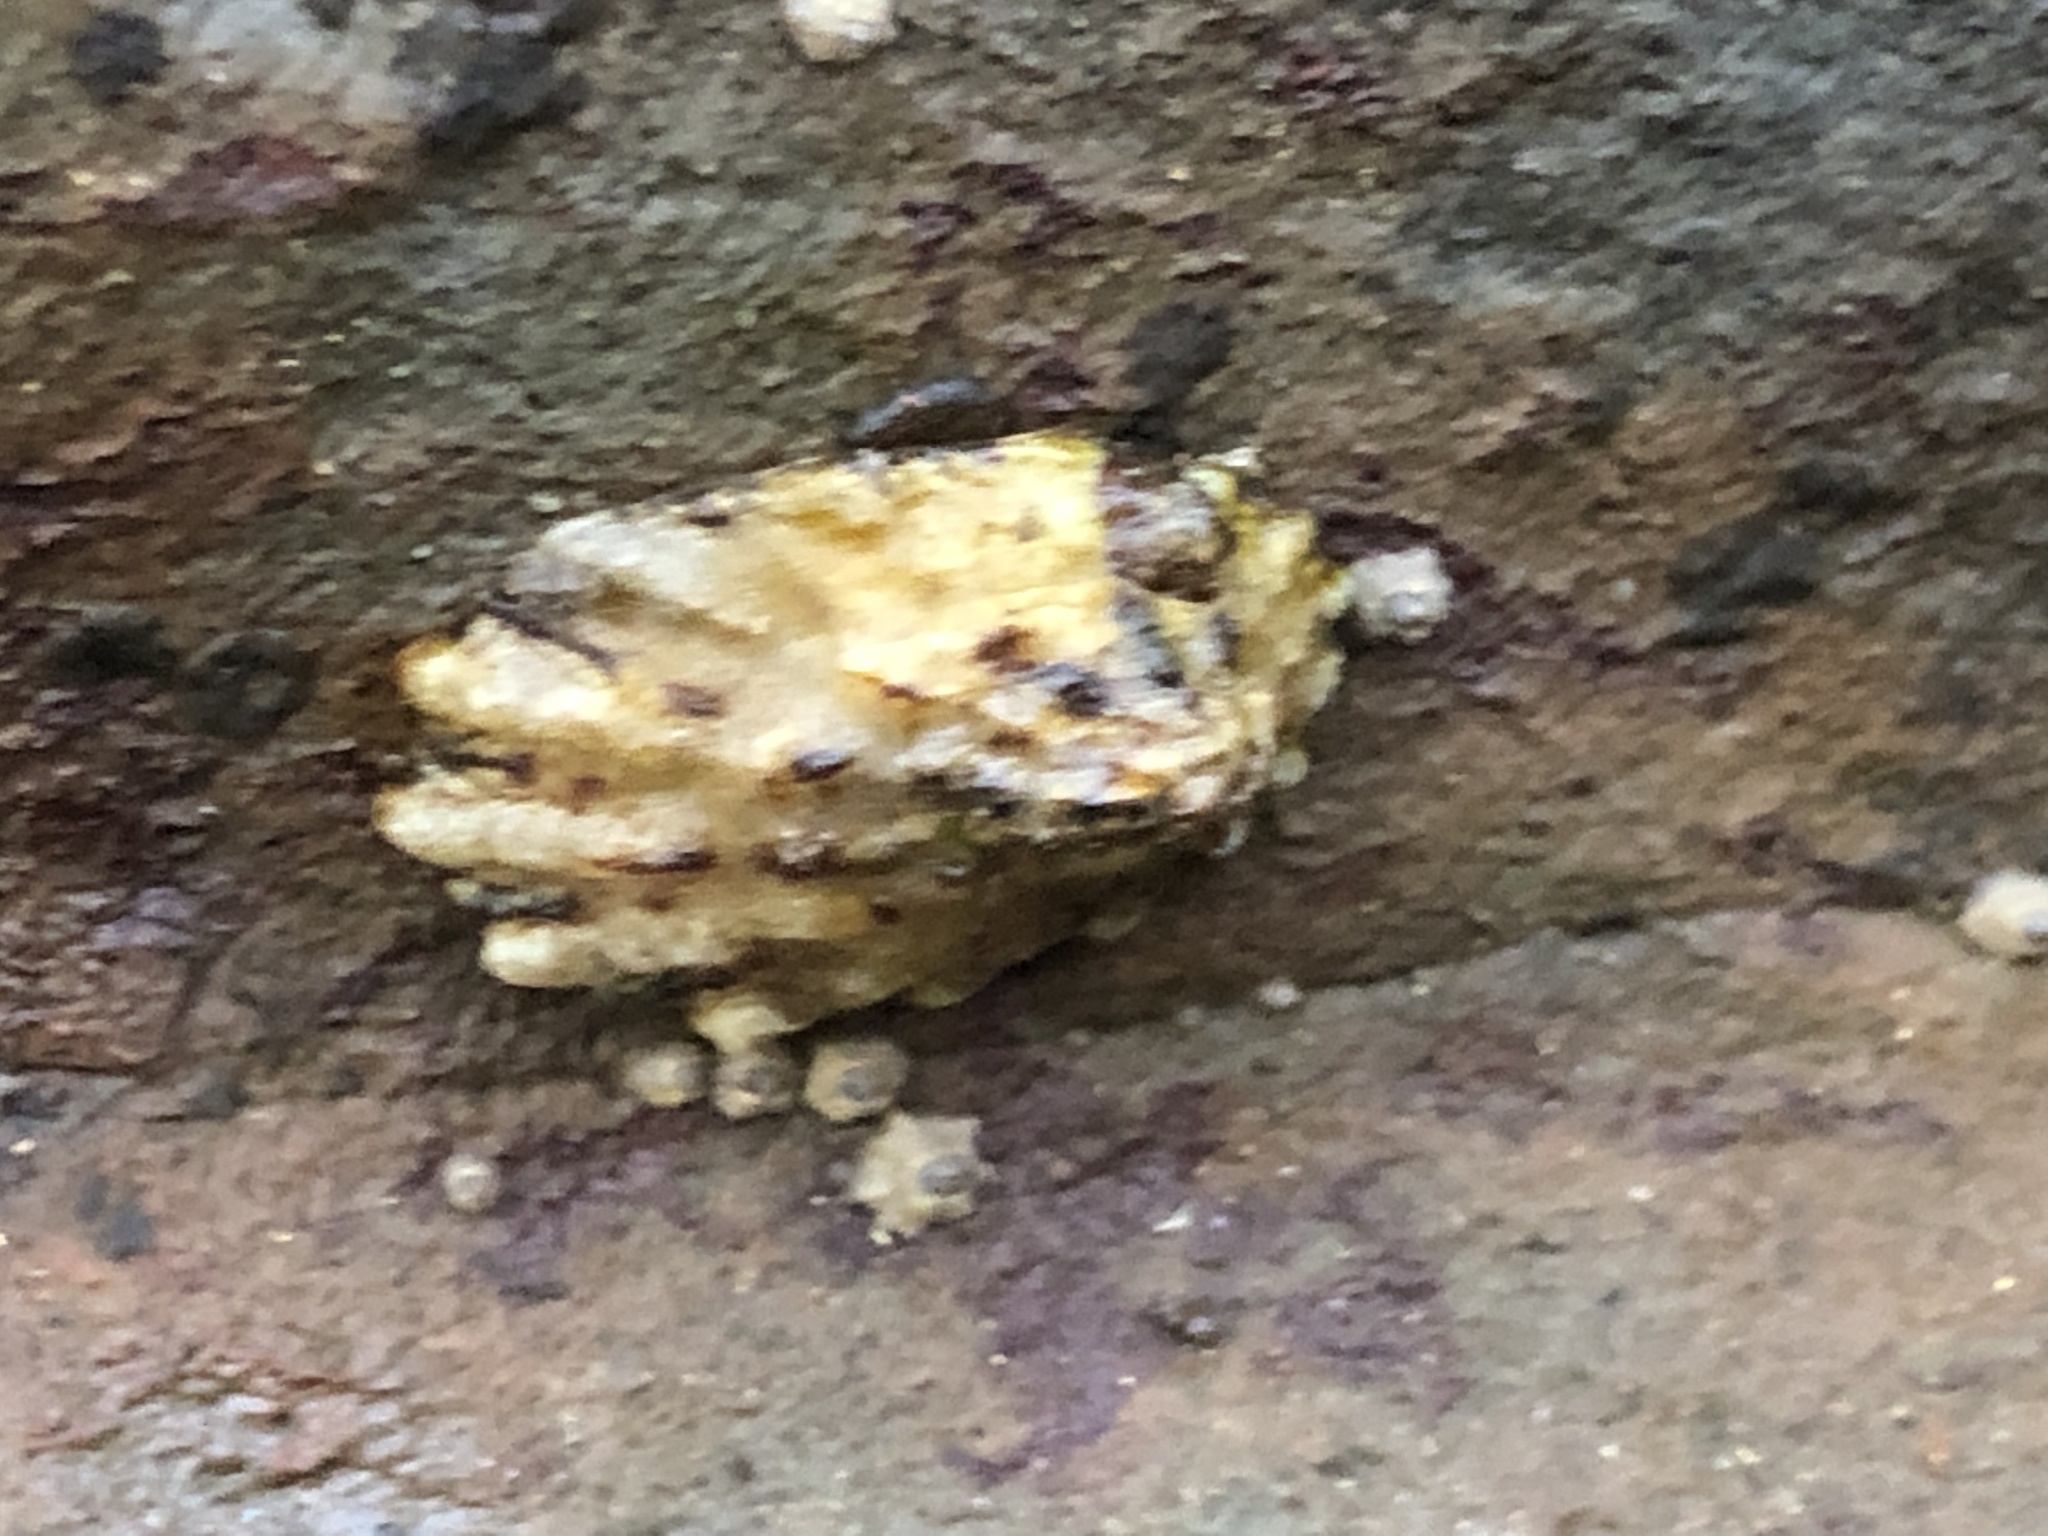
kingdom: Animalia
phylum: Mollusca
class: Gastropoda
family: Lottiidae
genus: Lottia
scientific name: Lottia scabra
